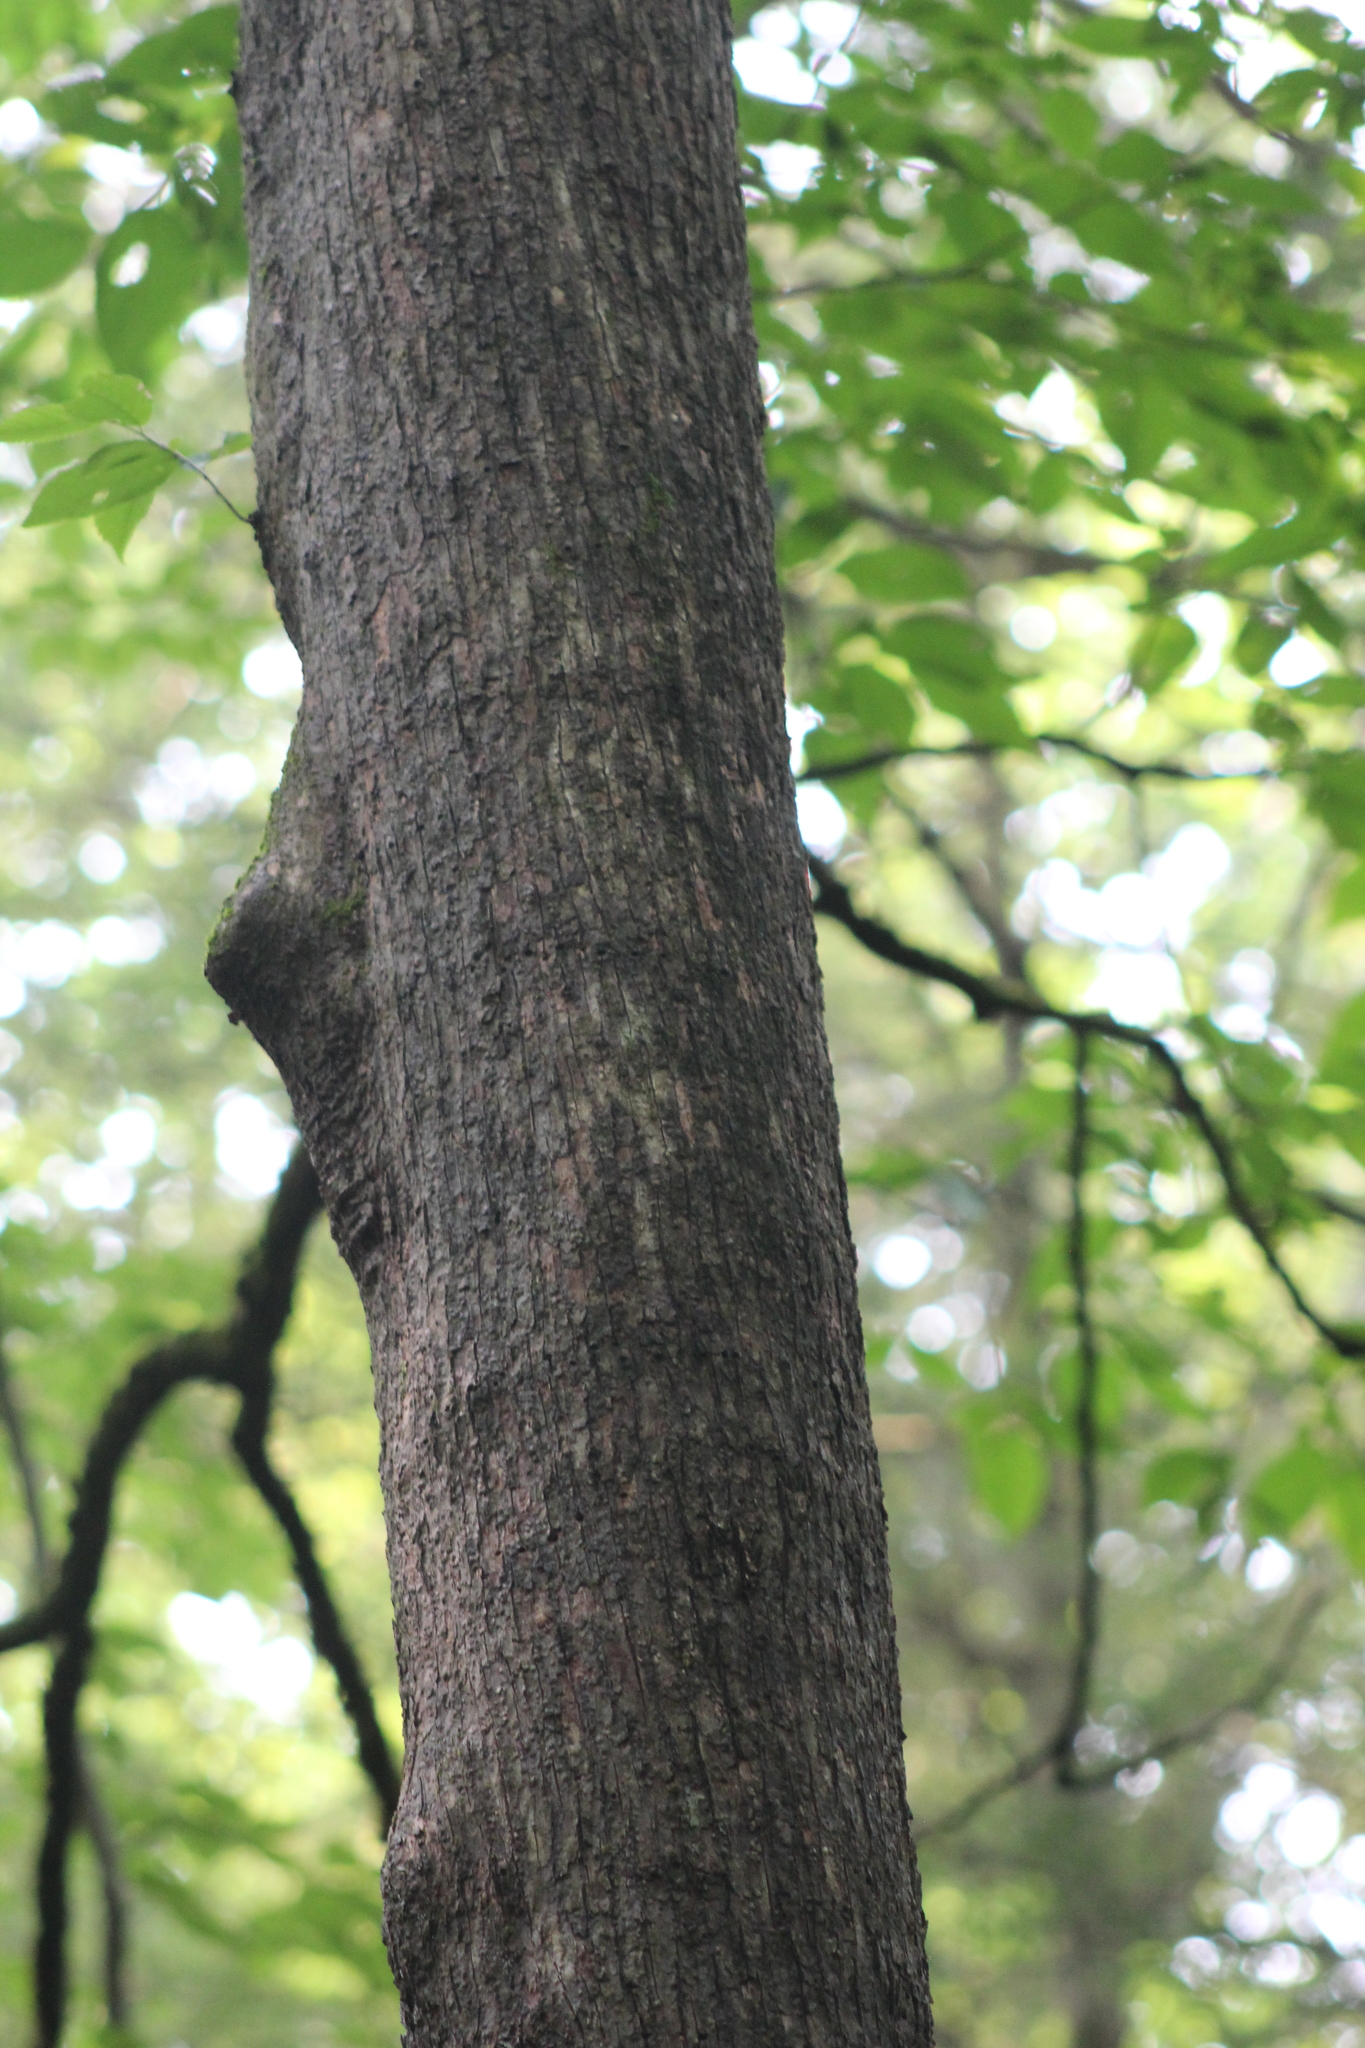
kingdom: Plantae
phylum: Tracheophyta
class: Magnoliopsida
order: Fagales
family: Betulaceae
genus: Ostrya
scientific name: Ostrya virginiana
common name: Ironwood
